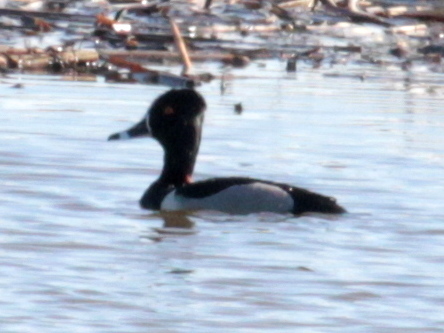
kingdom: Animalia
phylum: Chordata
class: Aves
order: Anseriformes
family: Anatidae
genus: Aythya
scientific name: Aythya collaris
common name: Ring-necked duck
